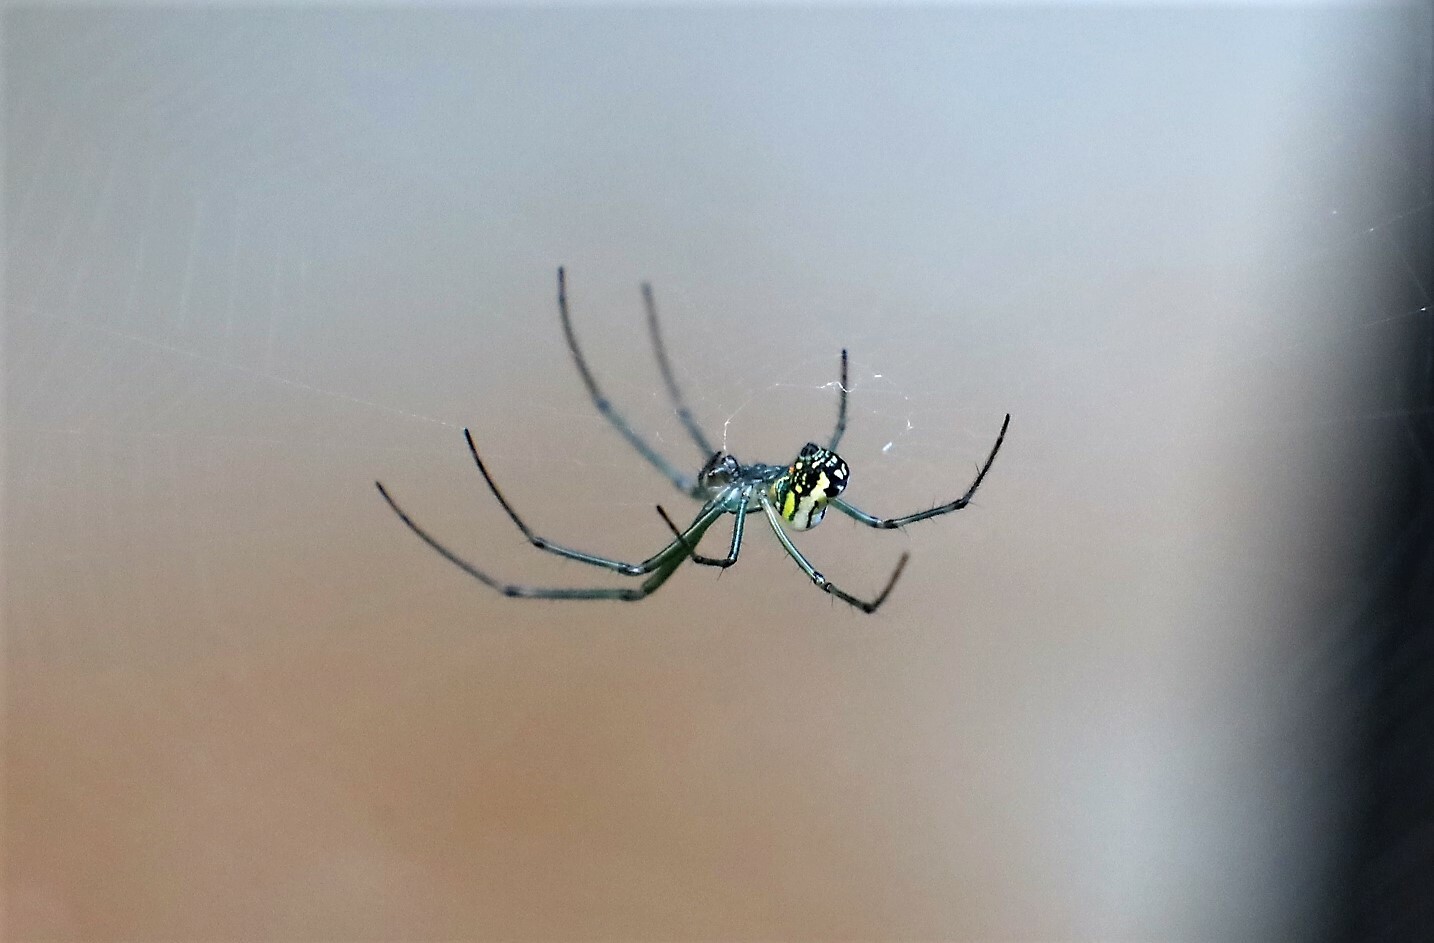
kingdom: Animalia
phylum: Arthropoda
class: Arachnida
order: Araneae
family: Tetragnathidae
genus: Leucauge
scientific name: Leucauge venusta
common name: Longjawed orb weavers
